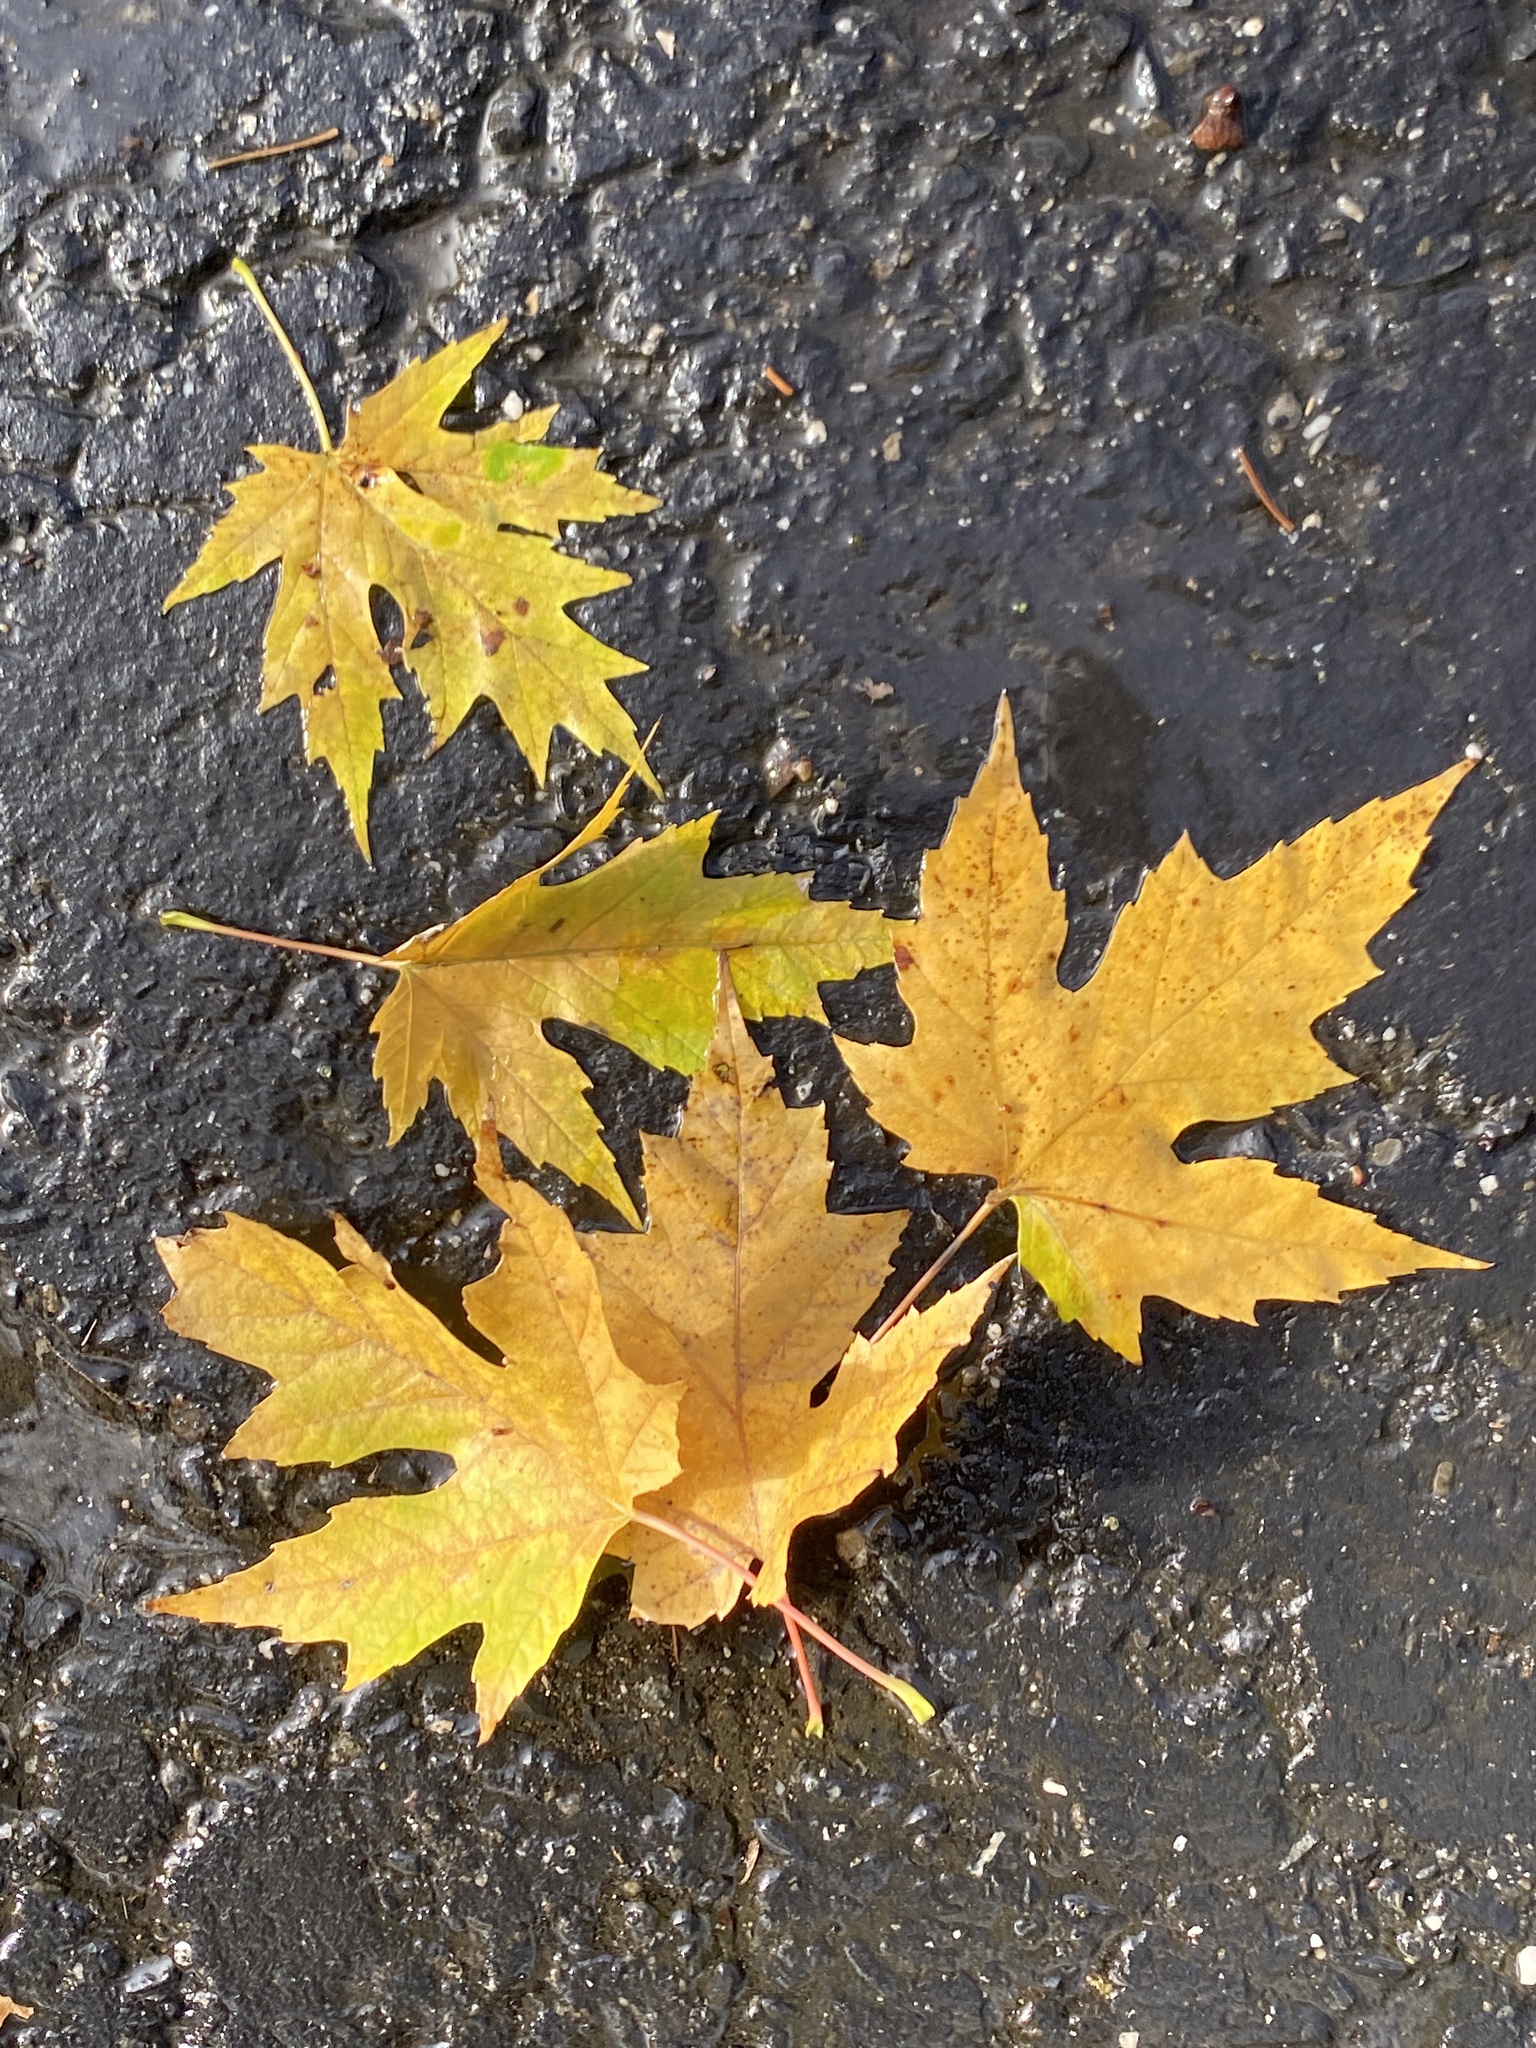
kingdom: Plantae
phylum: Tracheophyta
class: Magnoliopsida
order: Sapindales
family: Sapindaceae
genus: Acer
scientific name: Acer saccharinum
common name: Silver maple
